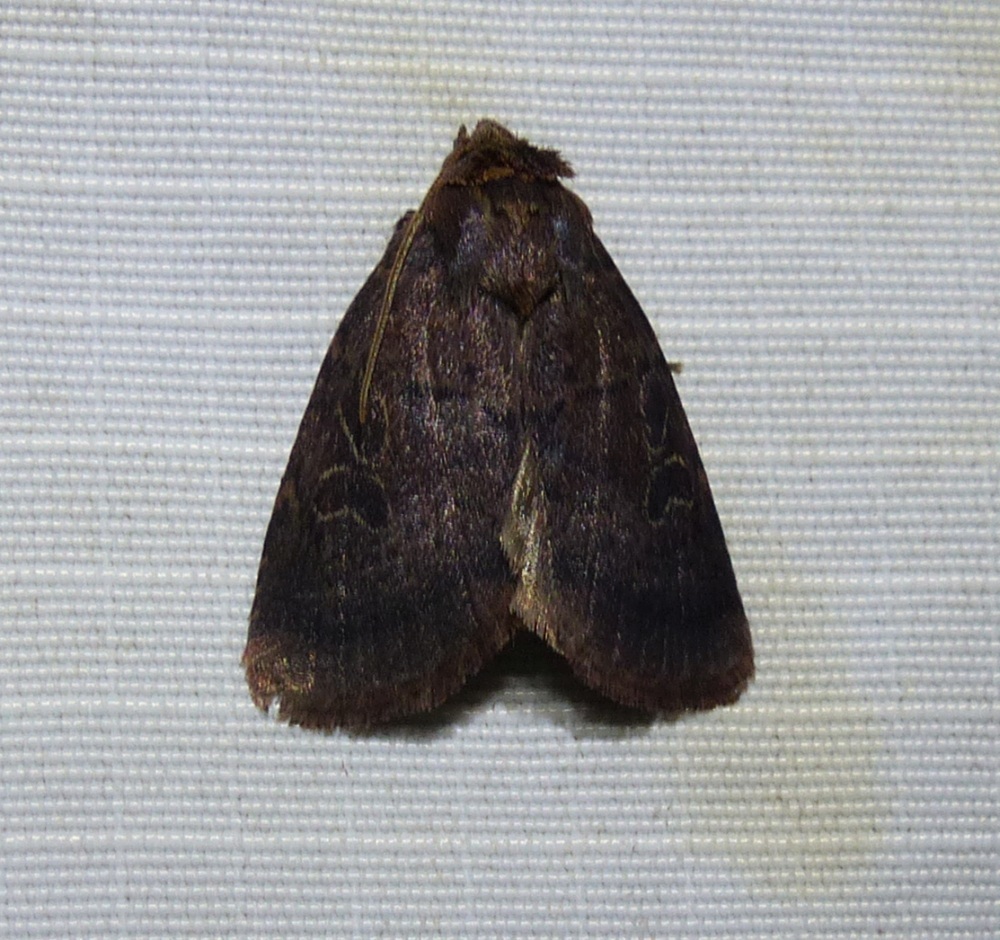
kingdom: Animalia
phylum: Arthropoda
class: Insecta
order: Lepidoptera
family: Noctuidae
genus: Orthodes
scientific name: Orthodes cynica
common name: Cynical quaker
